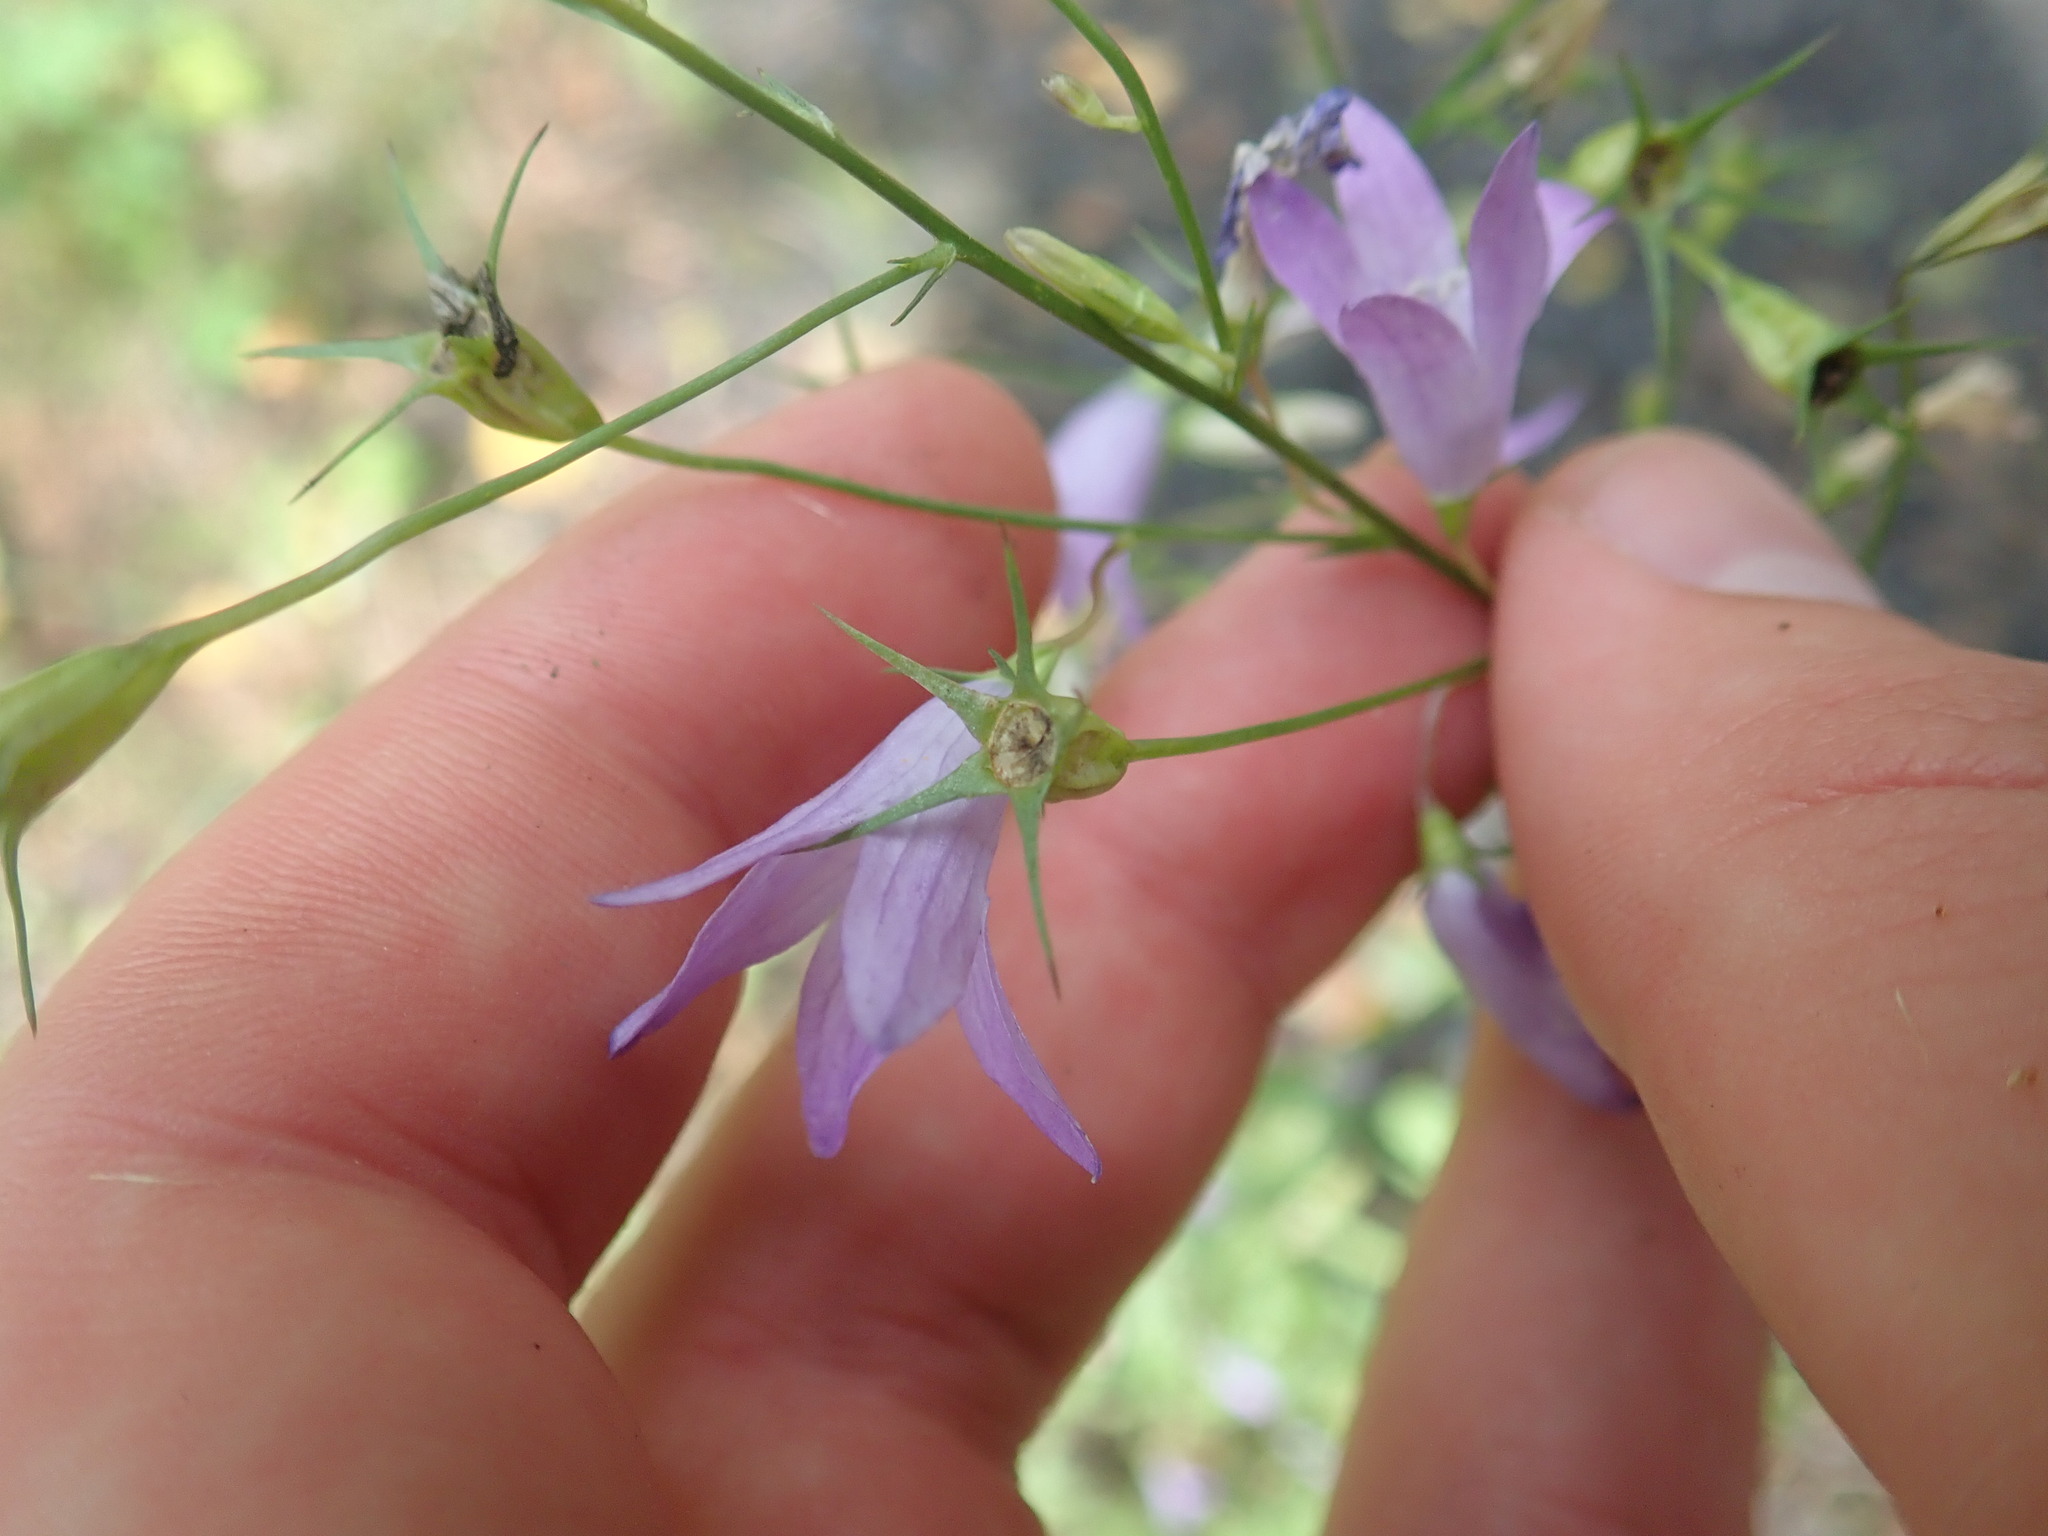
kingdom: Plantae
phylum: Tracheophyta
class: Magnoliopsida
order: Asterales
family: Campanulaceae
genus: Campanula
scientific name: Campanula rapunculus
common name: Rampion bellflower
